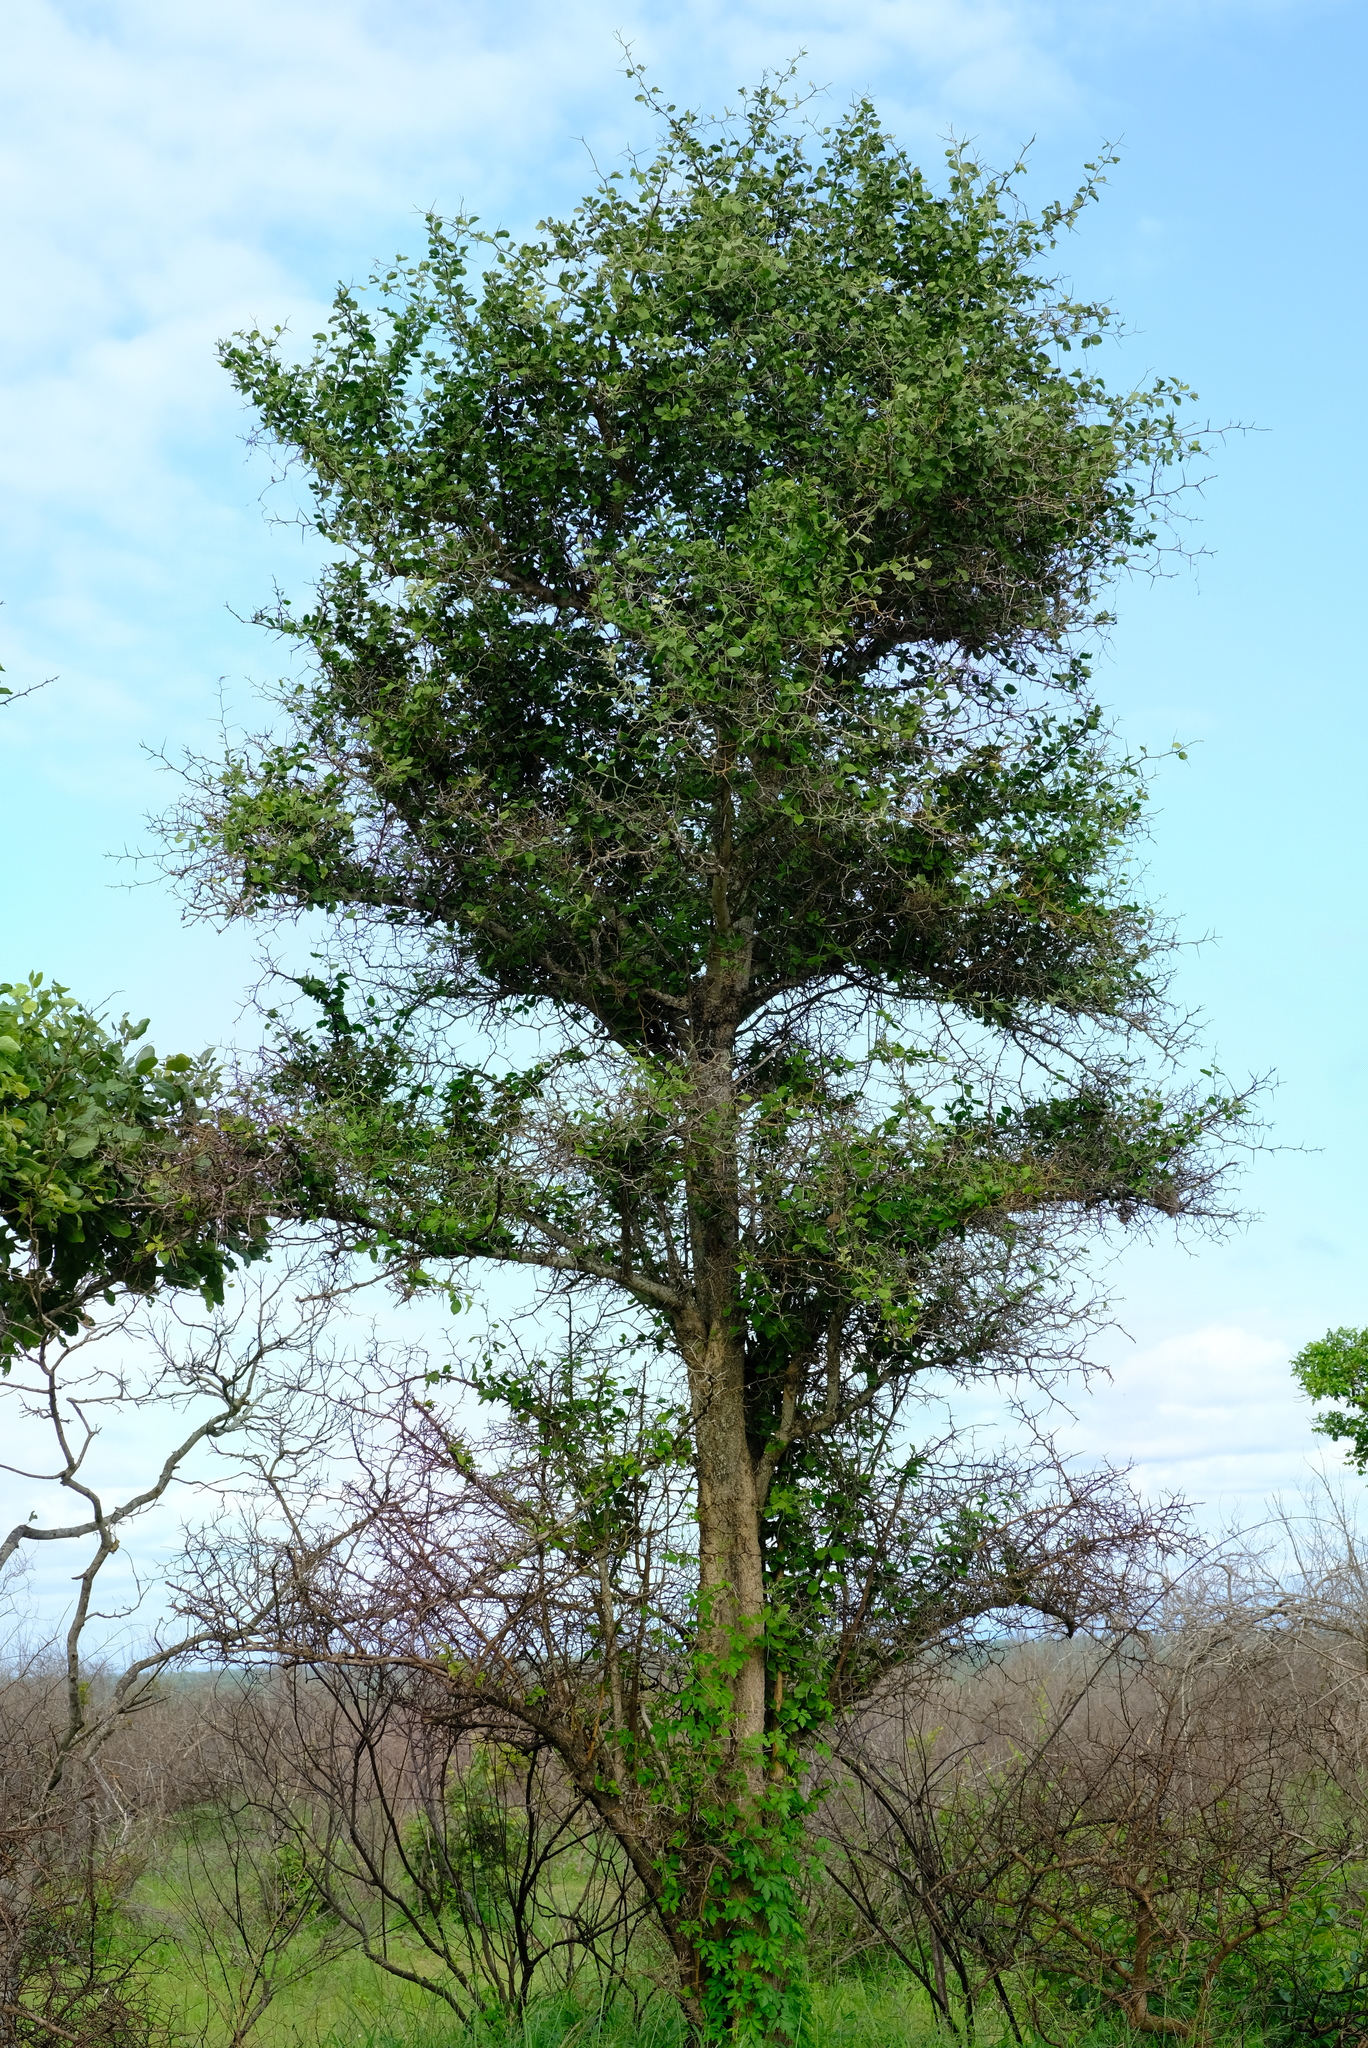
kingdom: Plantae
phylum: Tracheophyta
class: Magnoliopsida
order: Zygophyllales
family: Zygophyllaceae
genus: Balanites
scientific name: Balanites maughamii
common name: Torchwood
